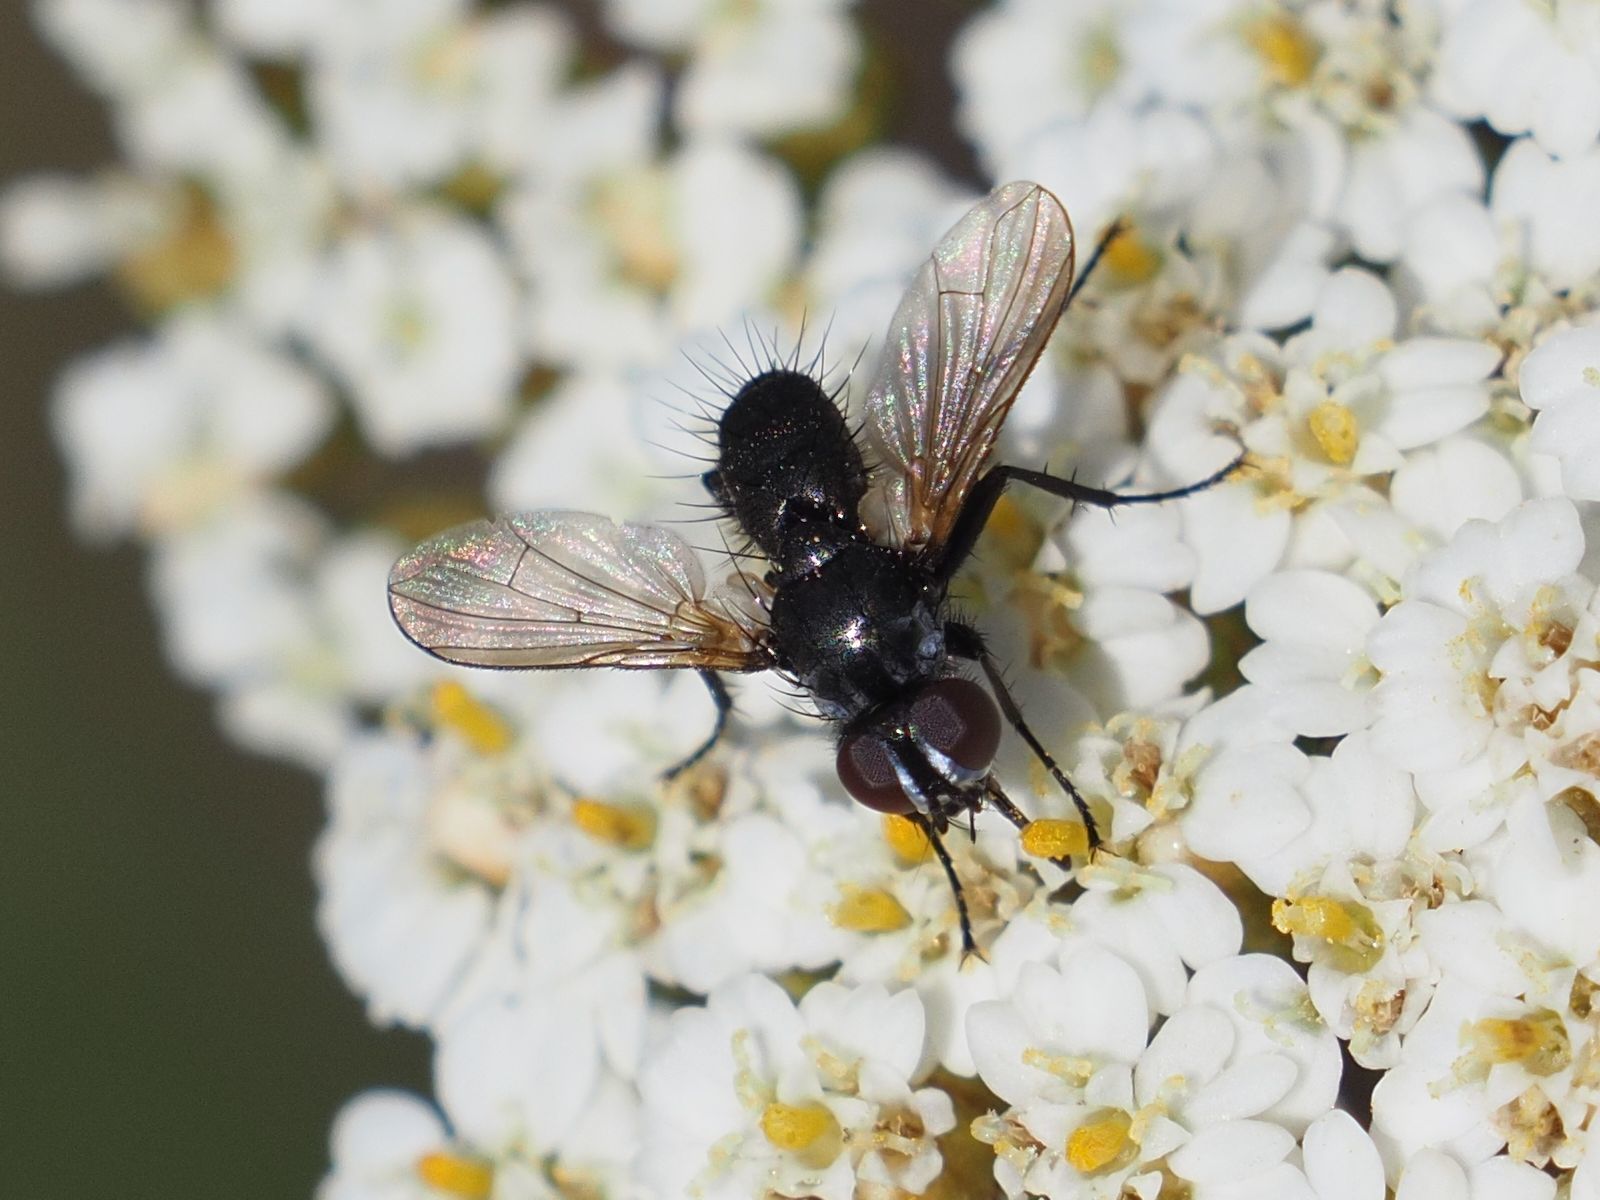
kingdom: Animalia
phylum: Arthropoda
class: Insecta
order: Diptera
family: Tachinidae
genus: Phania
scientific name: Phania funesta
